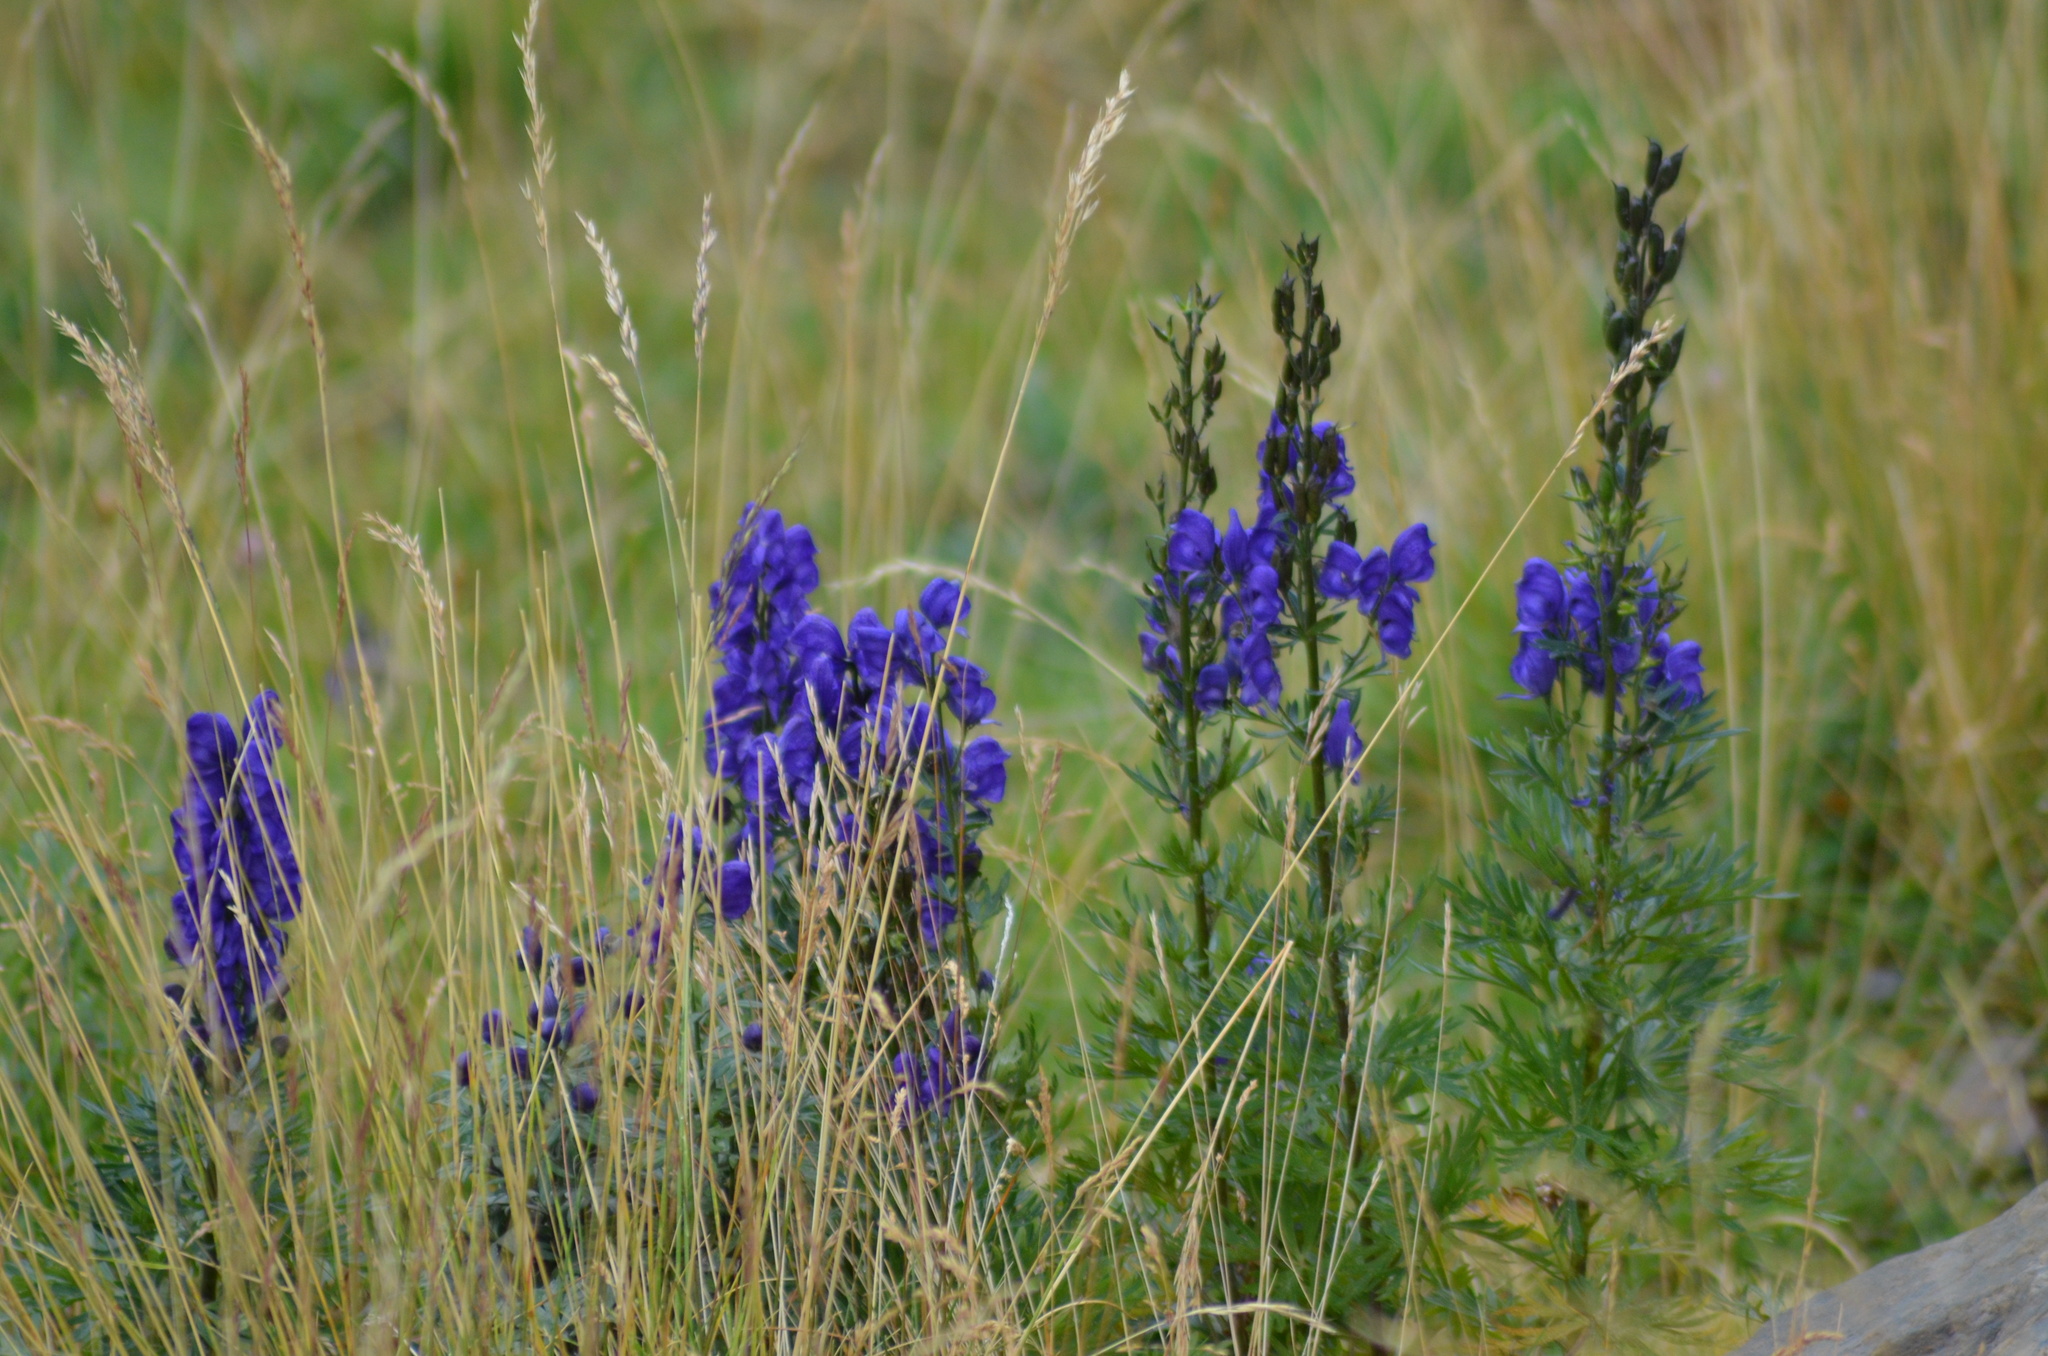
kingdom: Plantae
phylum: Tracheophyta
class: Magnoliopsida
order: Ranunculales
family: Ranunculaceae
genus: Aconitum
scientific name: Aconitum napellus
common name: Garden monkshood
